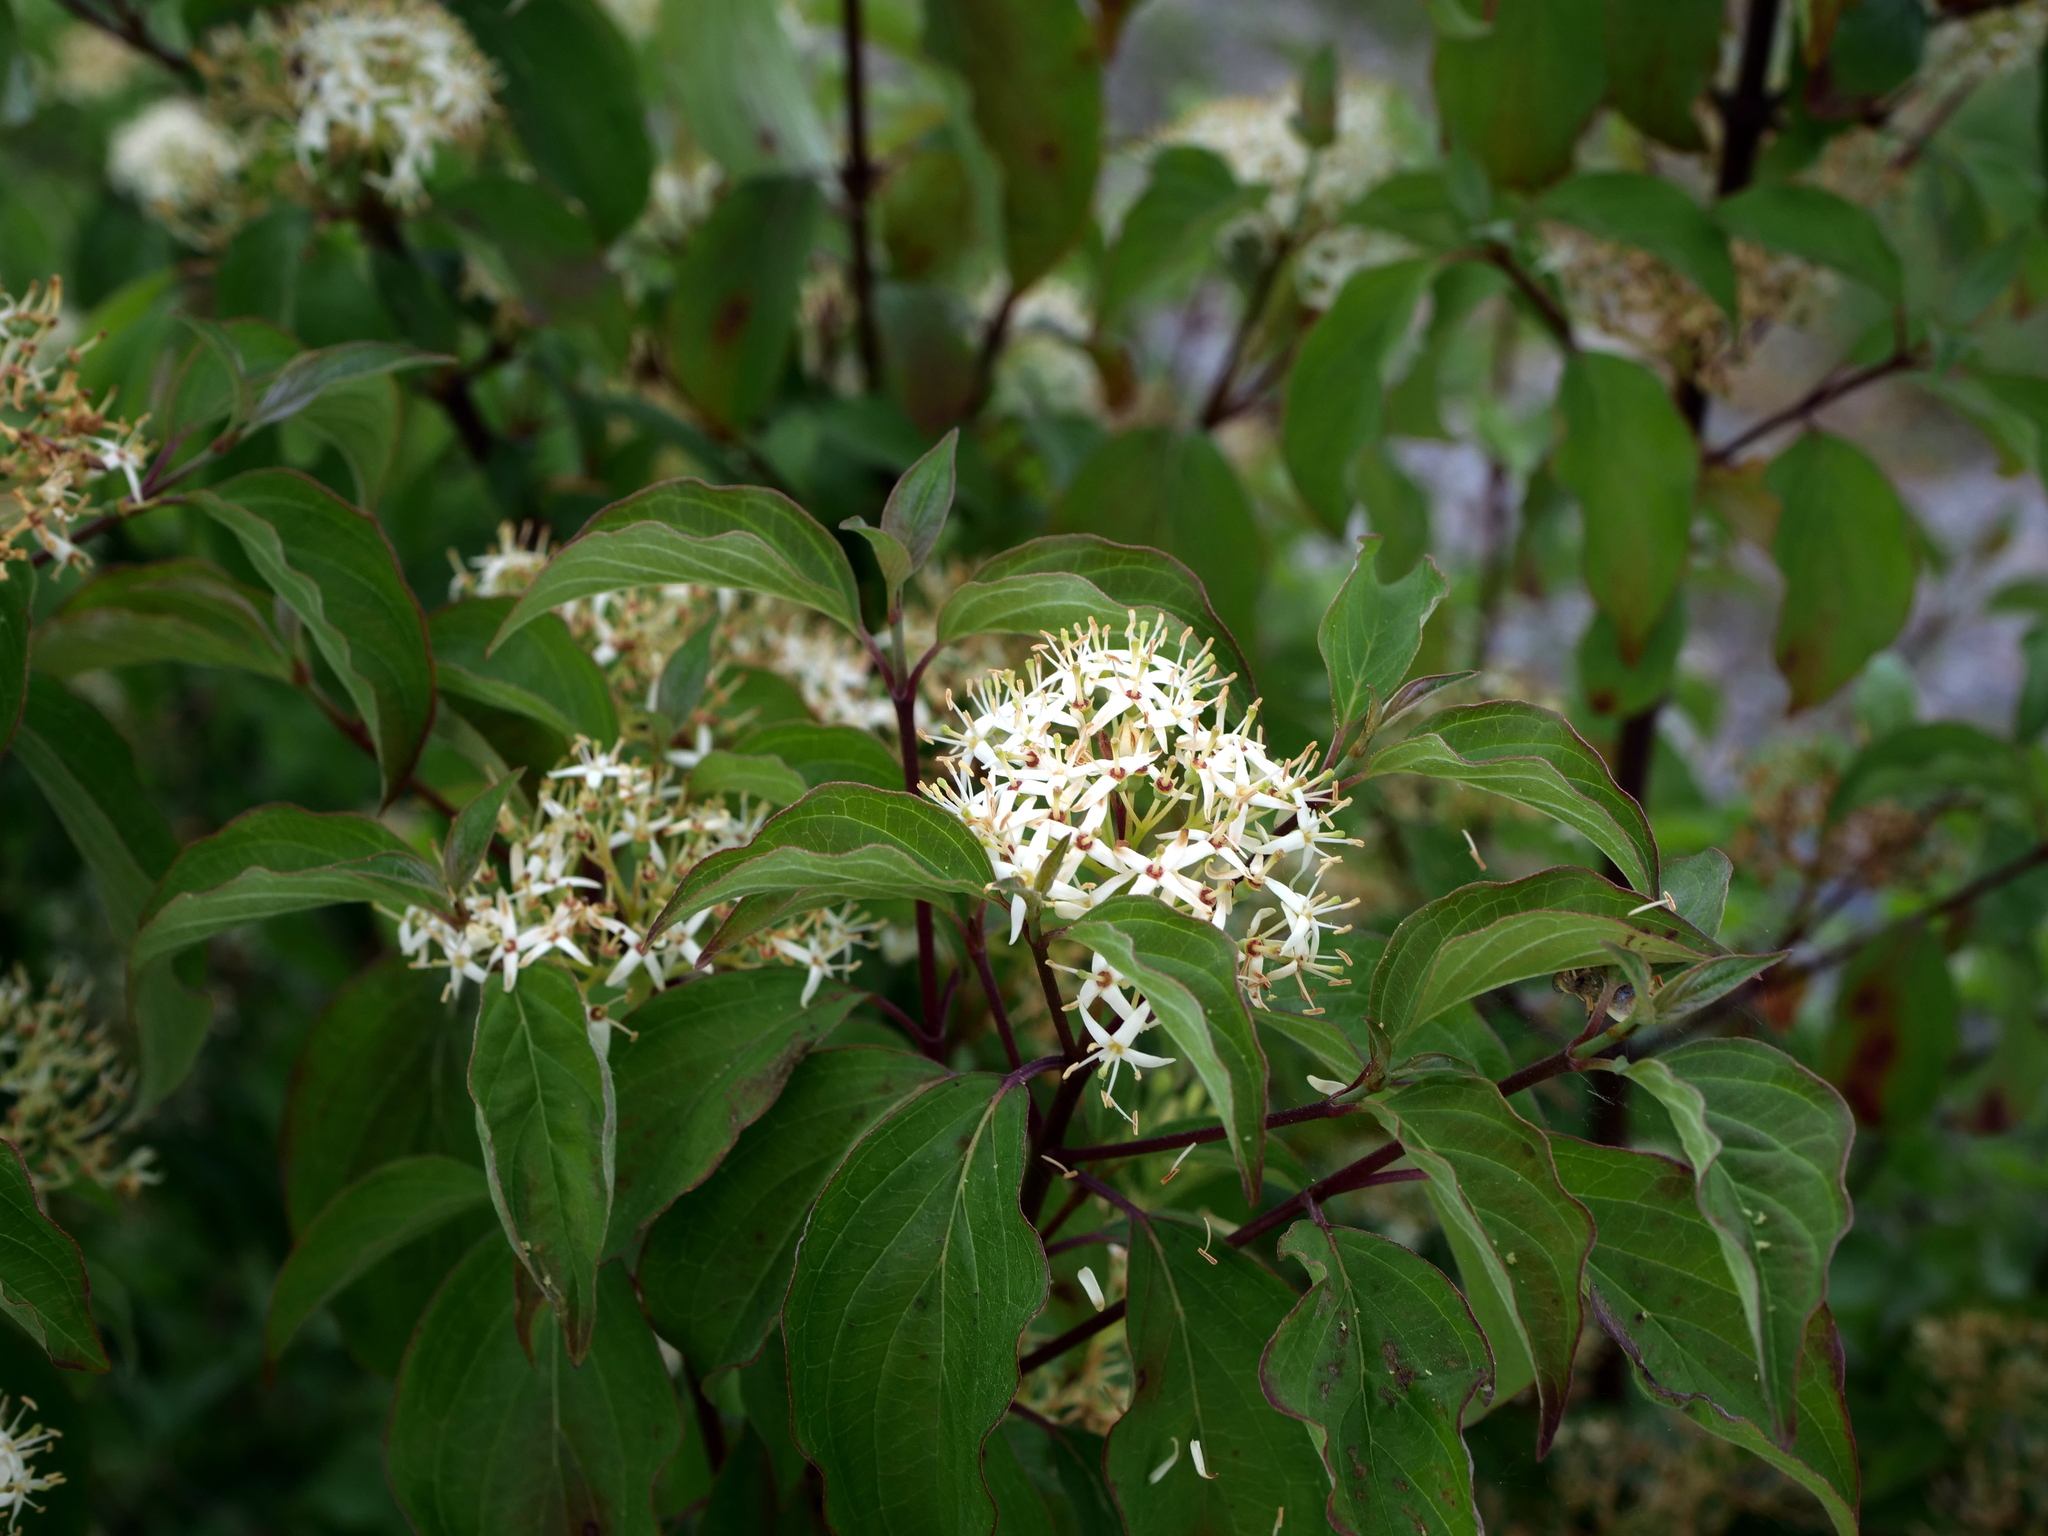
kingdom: Plantae
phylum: Tracheophyta
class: Magnoliopsida
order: Cornales
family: Cornaceae
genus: Cornus
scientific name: Cornus sanguinea
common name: Dogwood
